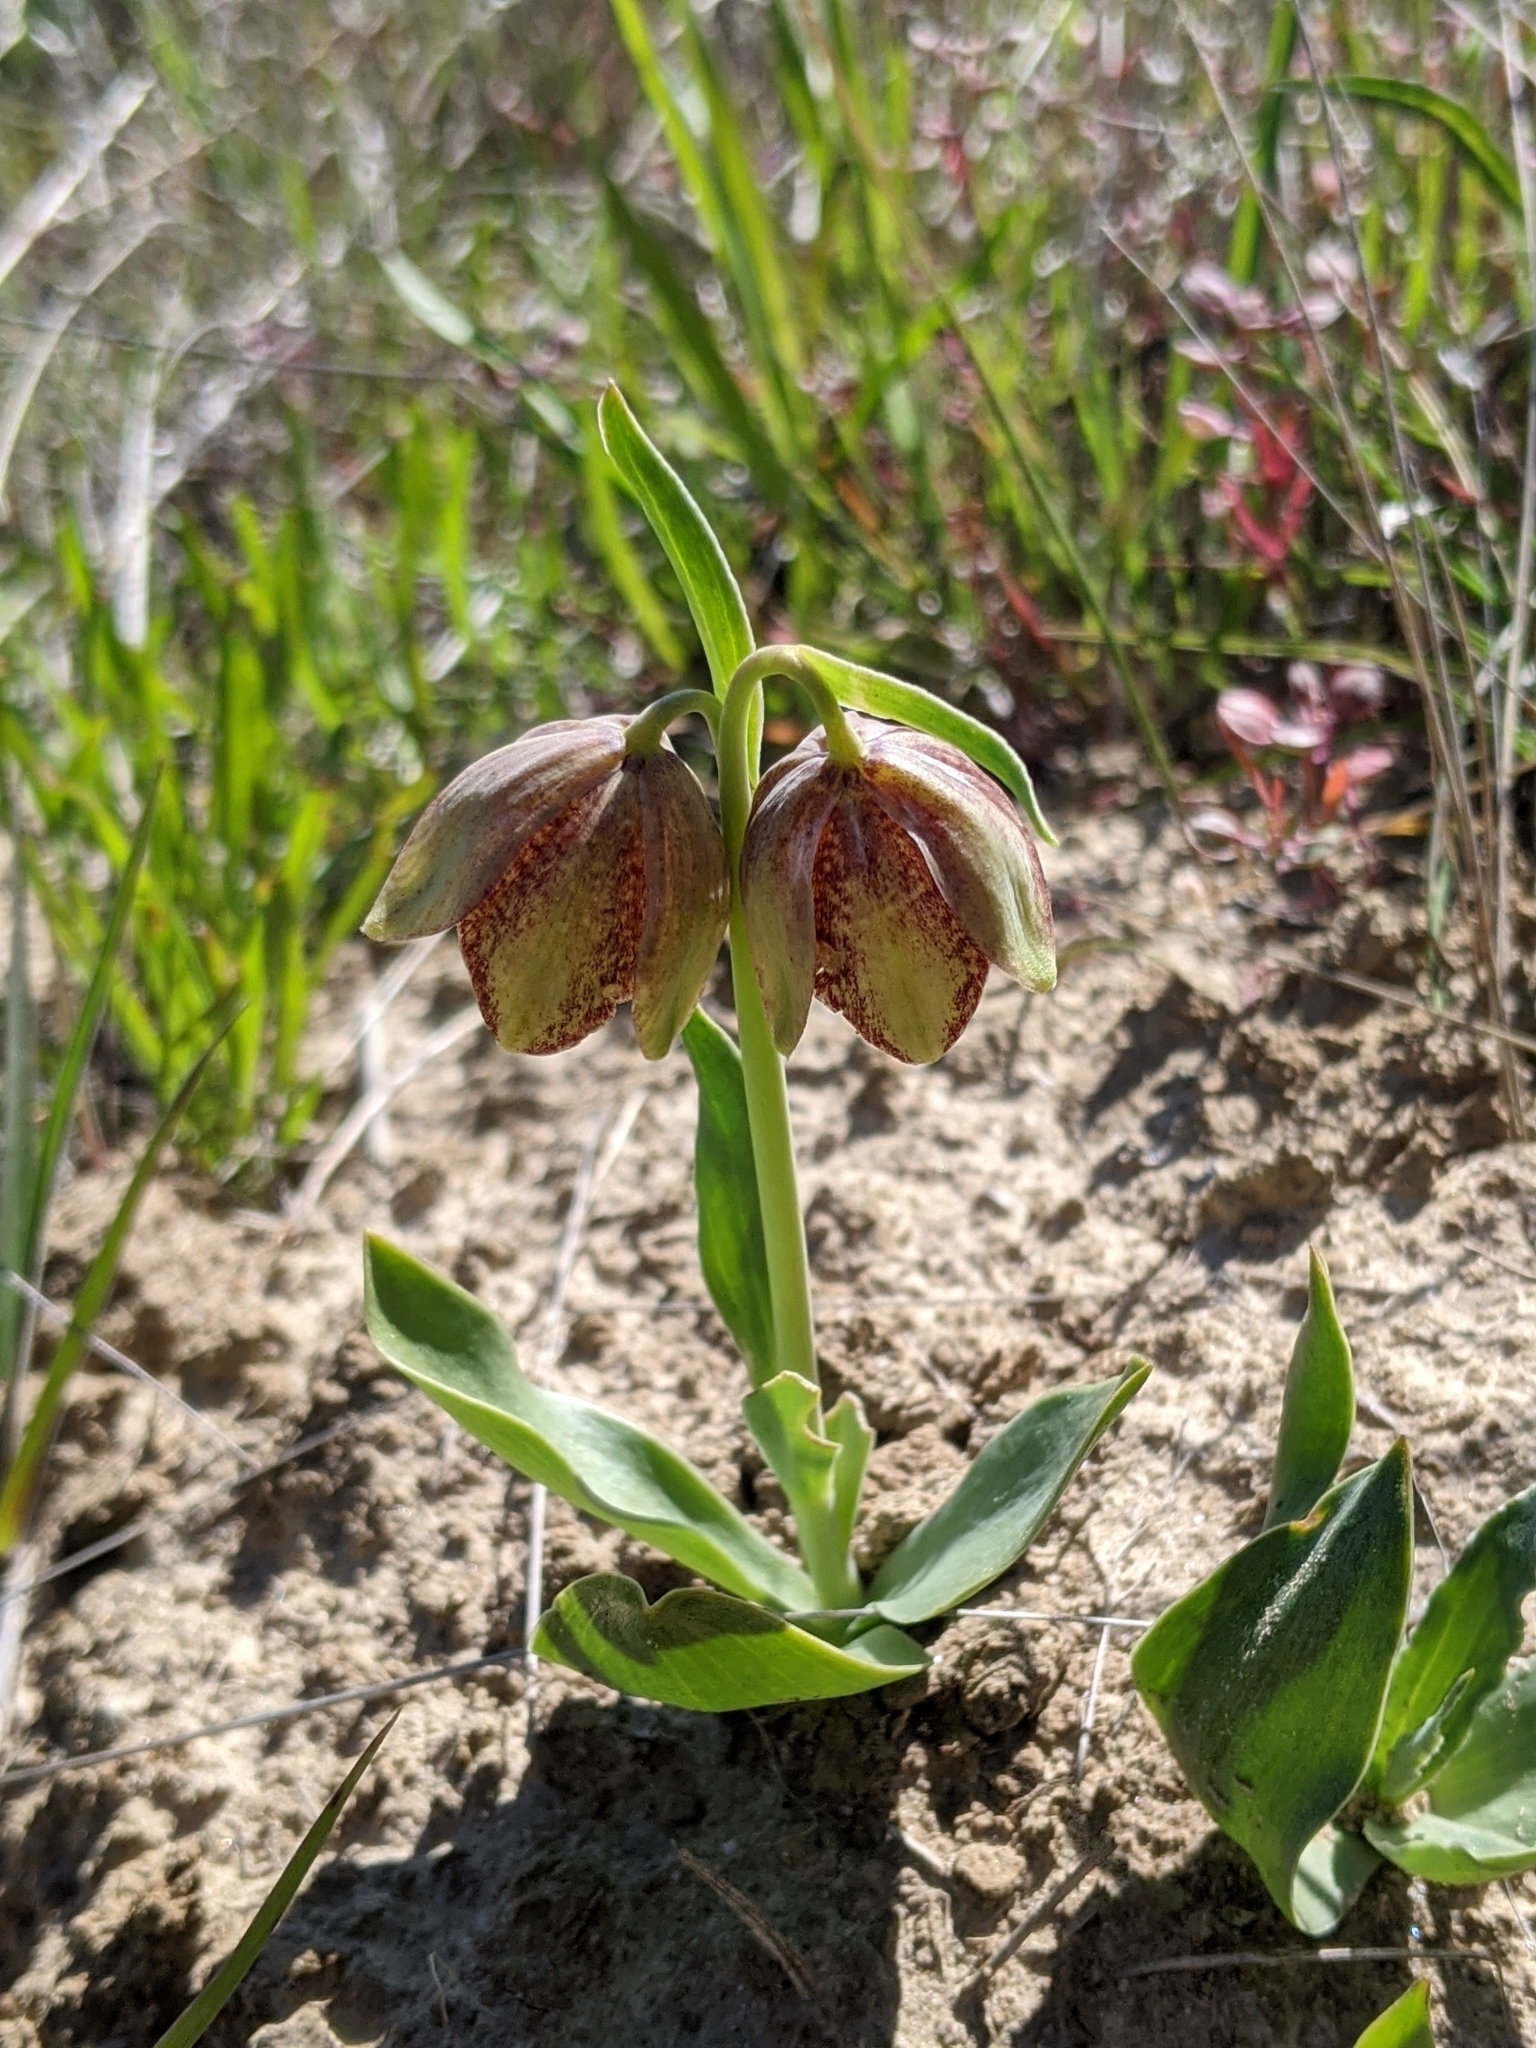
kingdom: Plantae
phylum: Tracheophyta
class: Liliopsida
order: Liliales
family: Liliaceae
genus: Fritillaria
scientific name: Fritillaria agrestis
